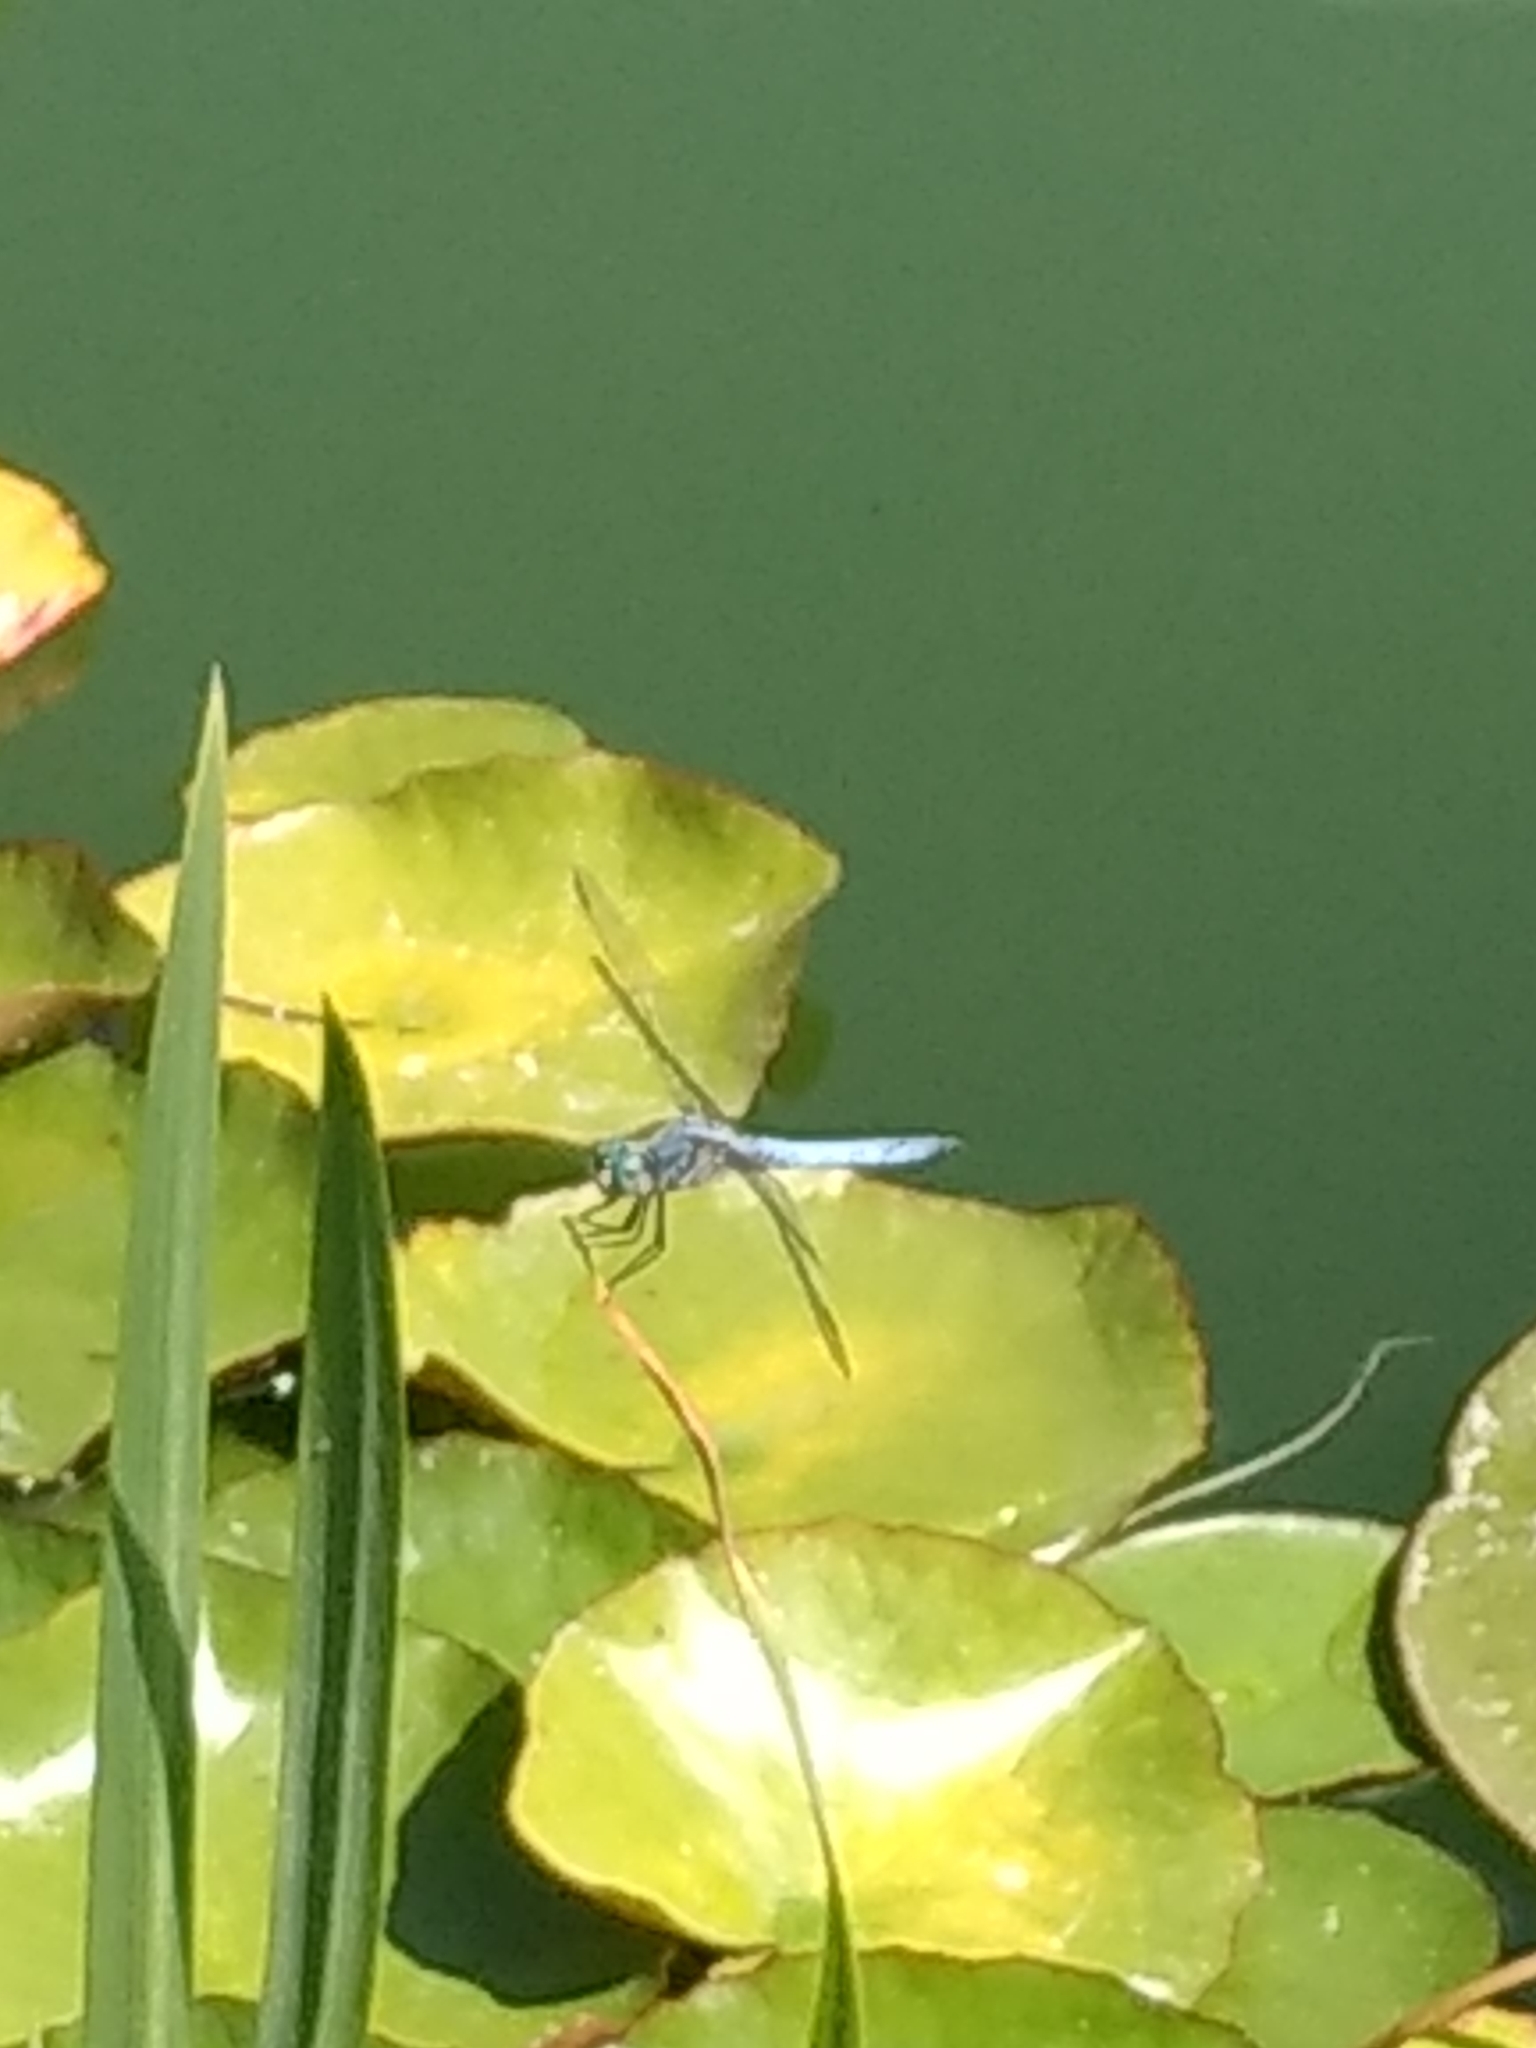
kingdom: Animalia
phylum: Arthropoda
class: Insecta
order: Odonata
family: Libellulidae
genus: Pachydiplax
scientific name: Pachydiplax longipennis
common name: Blue dasher
